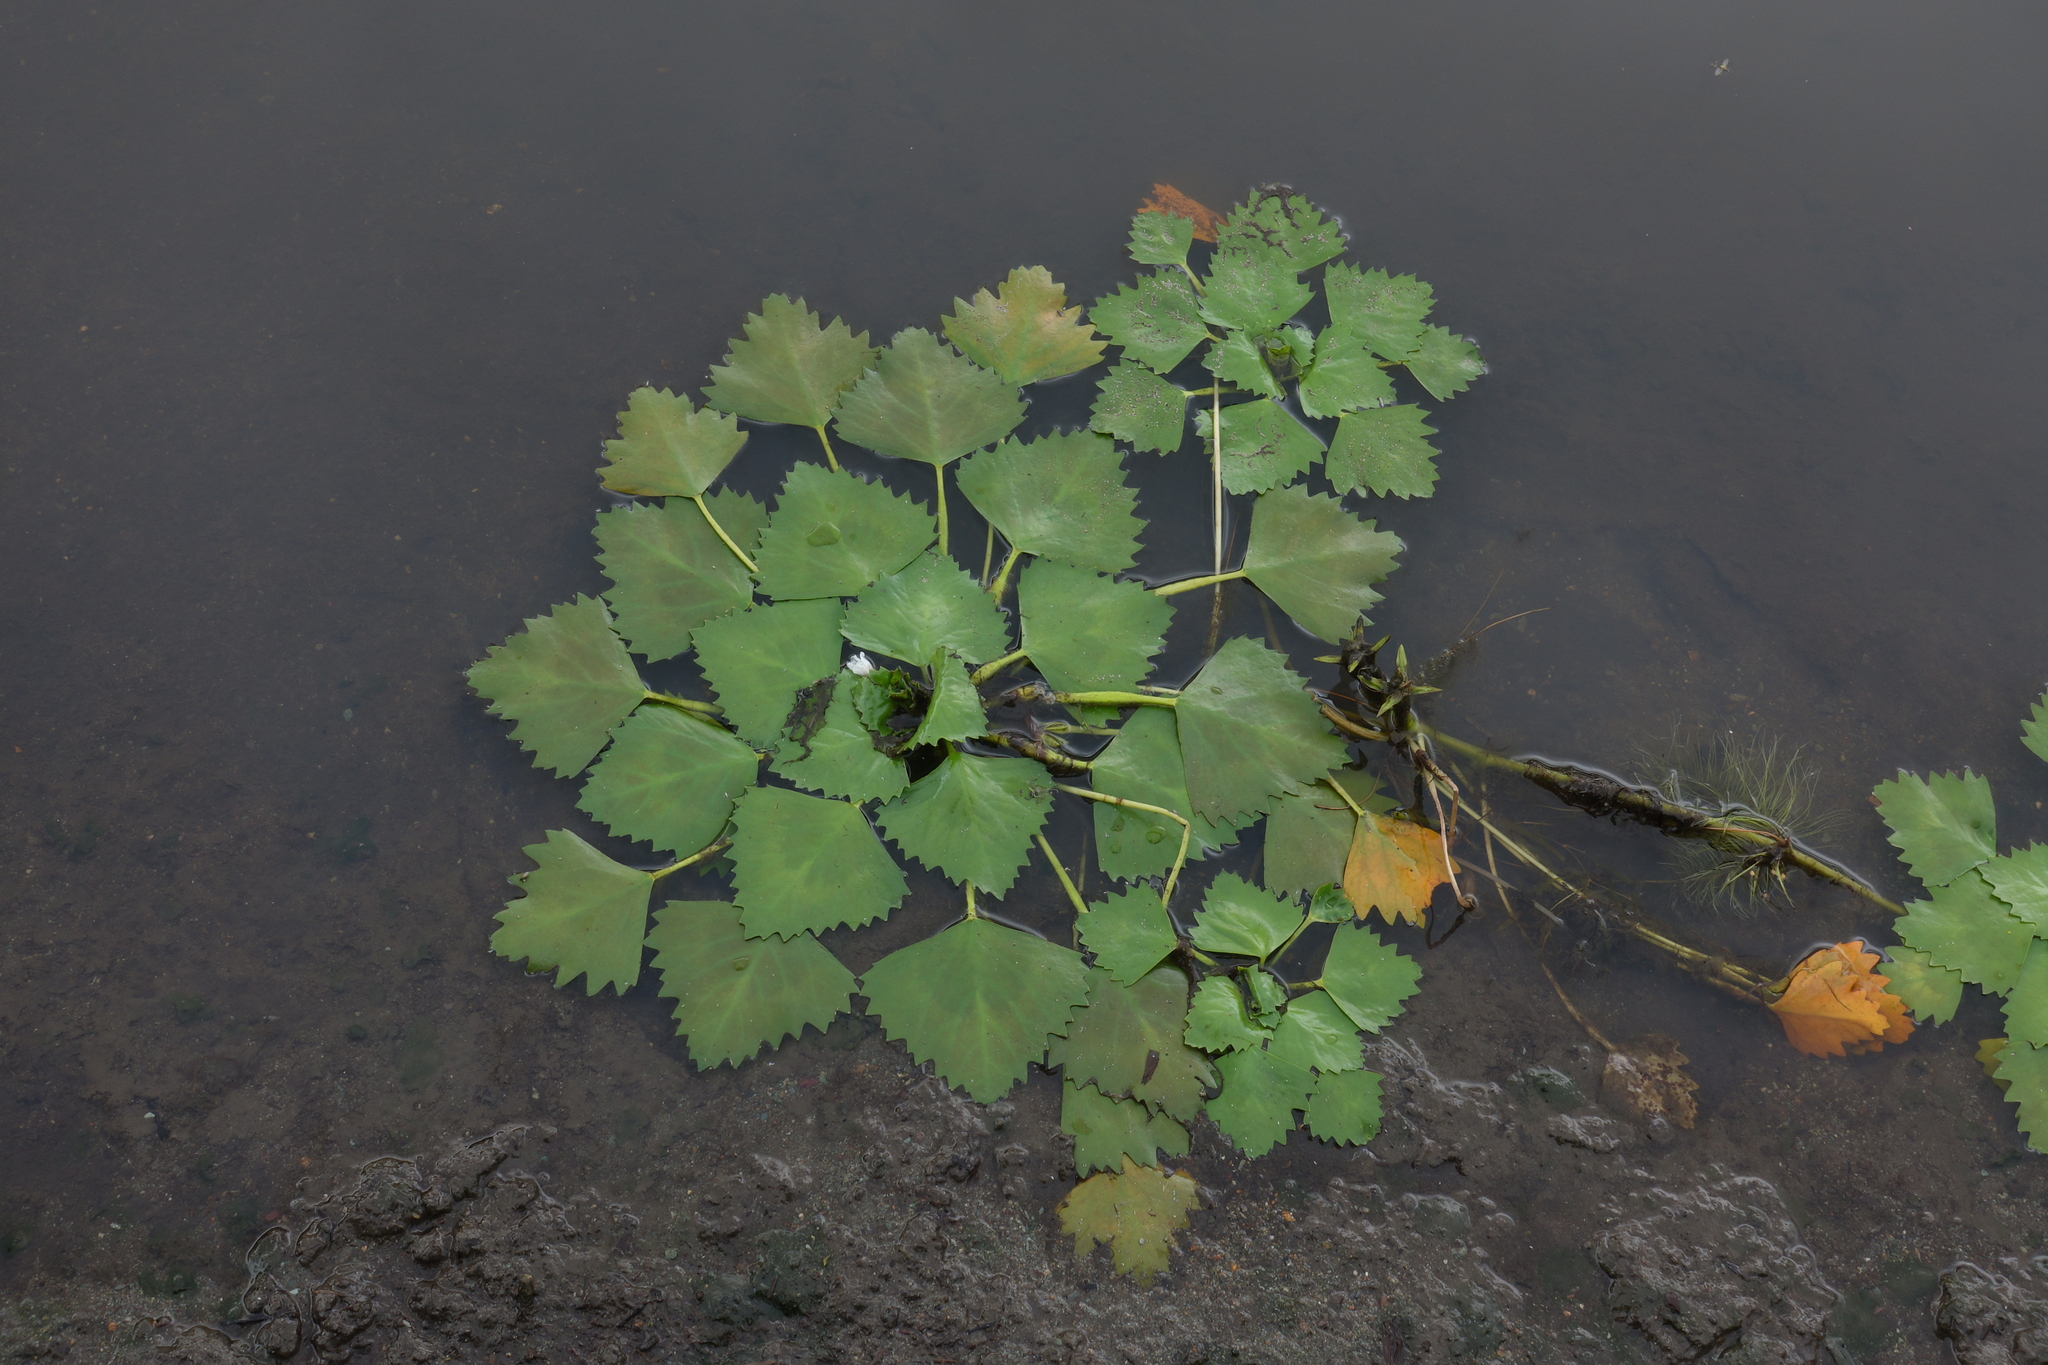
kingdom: Plantae
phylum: Tracheophyta
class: Magnoliopsida
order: Myrtales
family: Lythraceae
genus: Trapa
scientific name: Trapa natans
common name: Water chestnut
